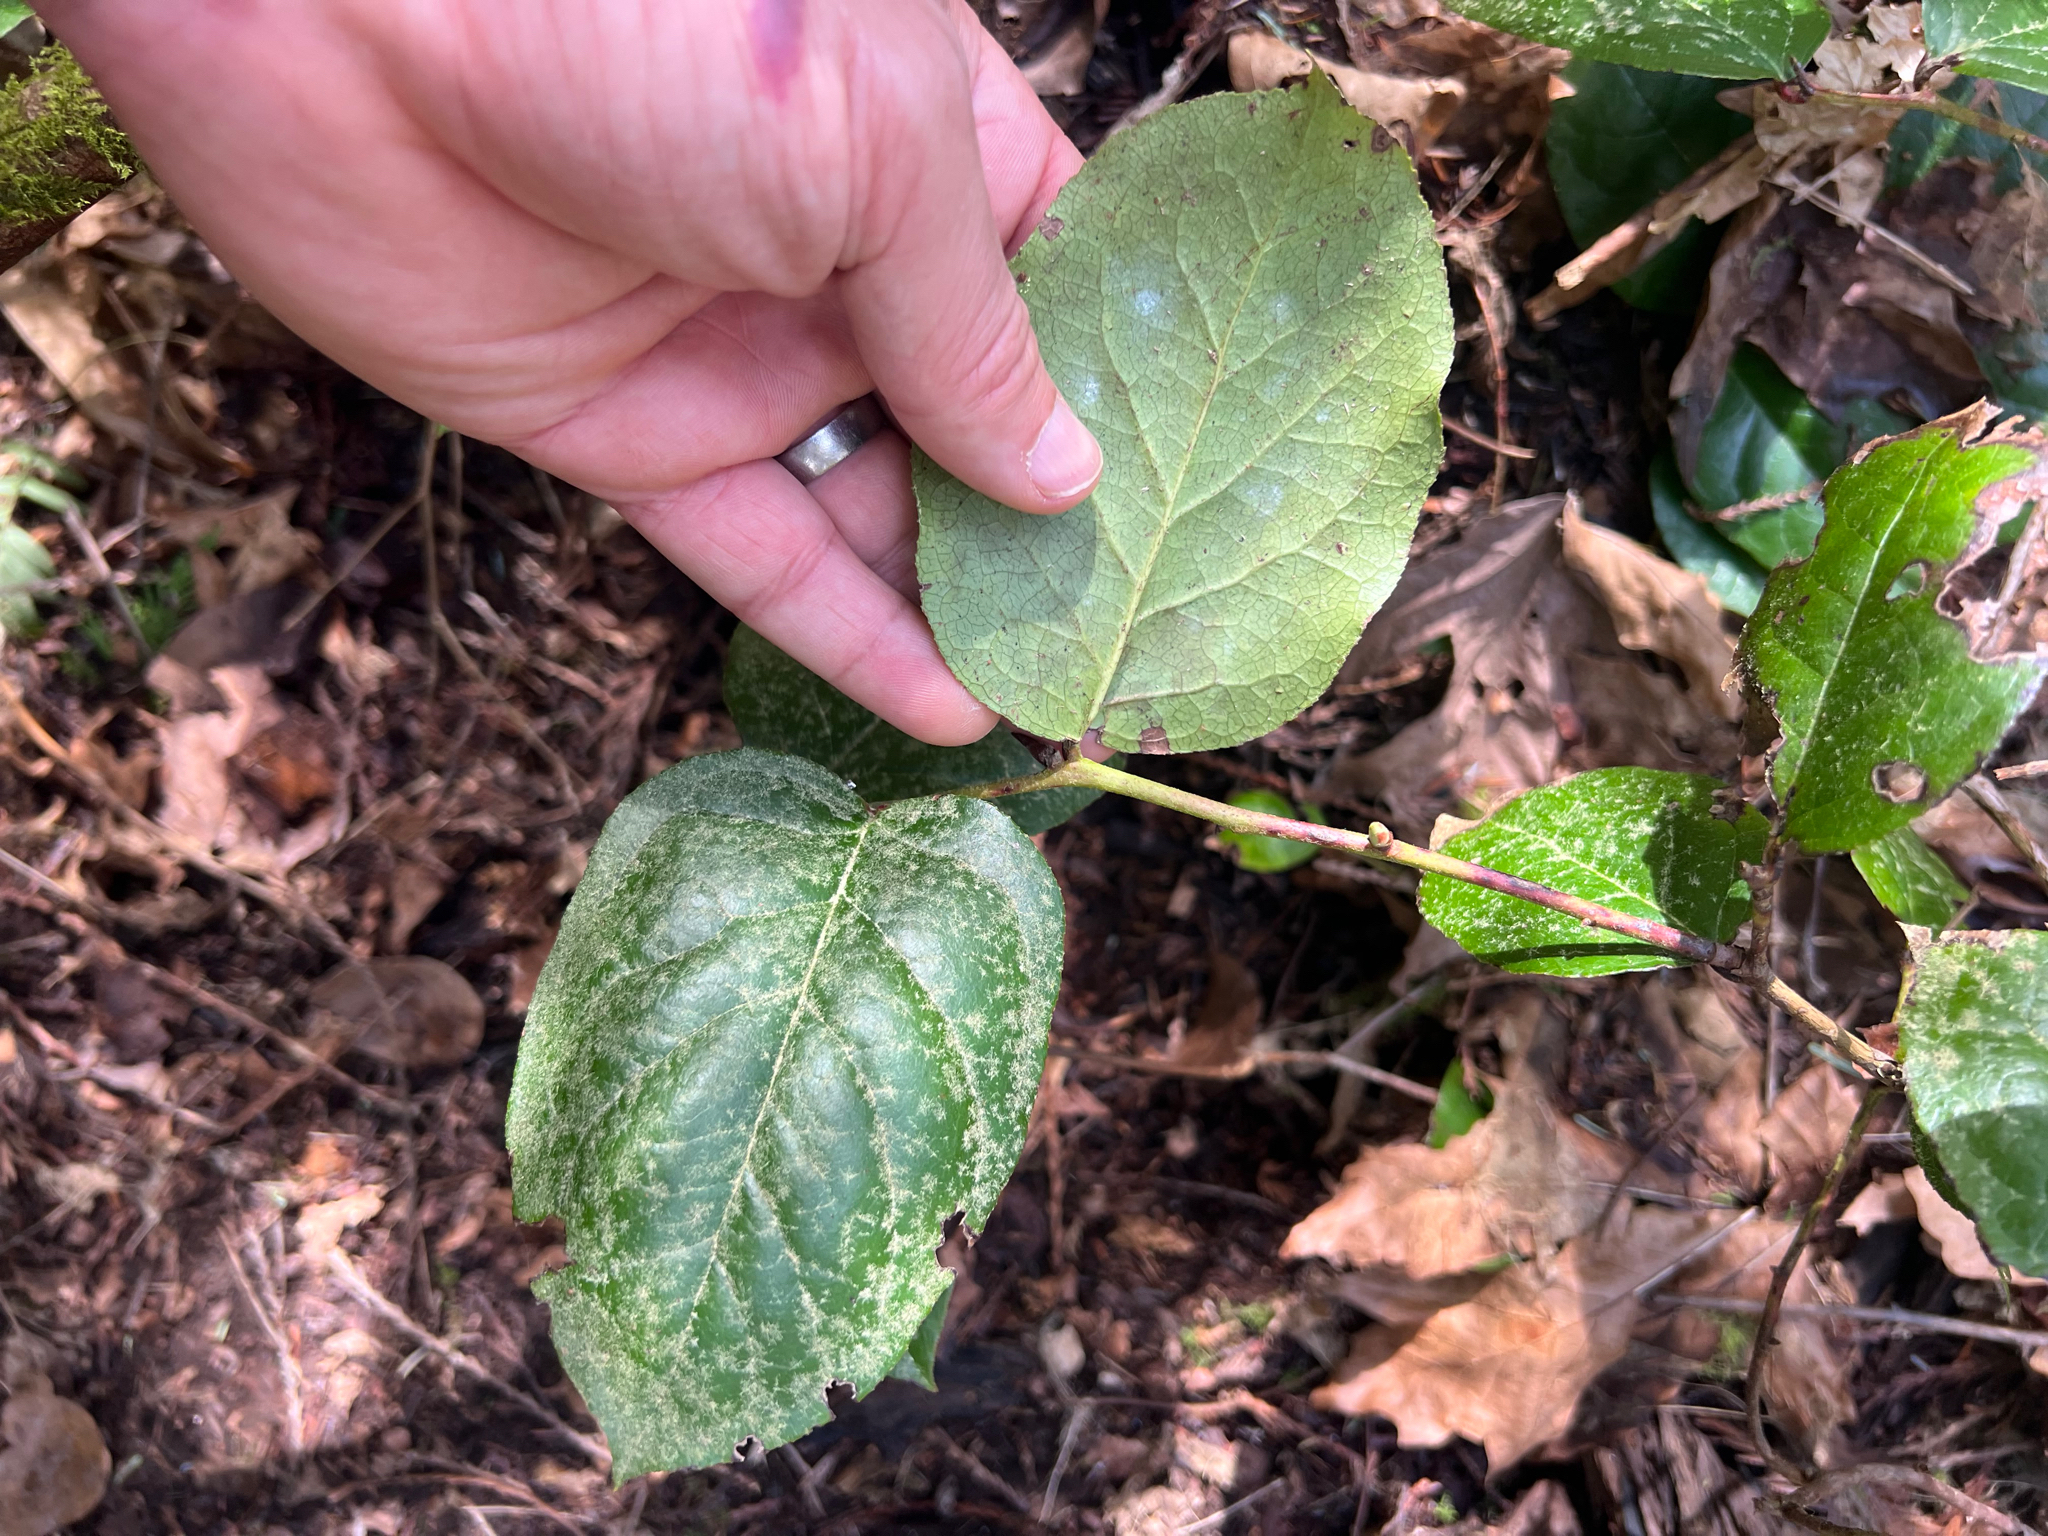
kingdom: Plantae
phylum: Tracheophyta
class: Magnoliopsida
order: Ericales
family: Ericaceae
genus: Gaultheria
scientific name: Gaultheria shallon
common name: Shallon
